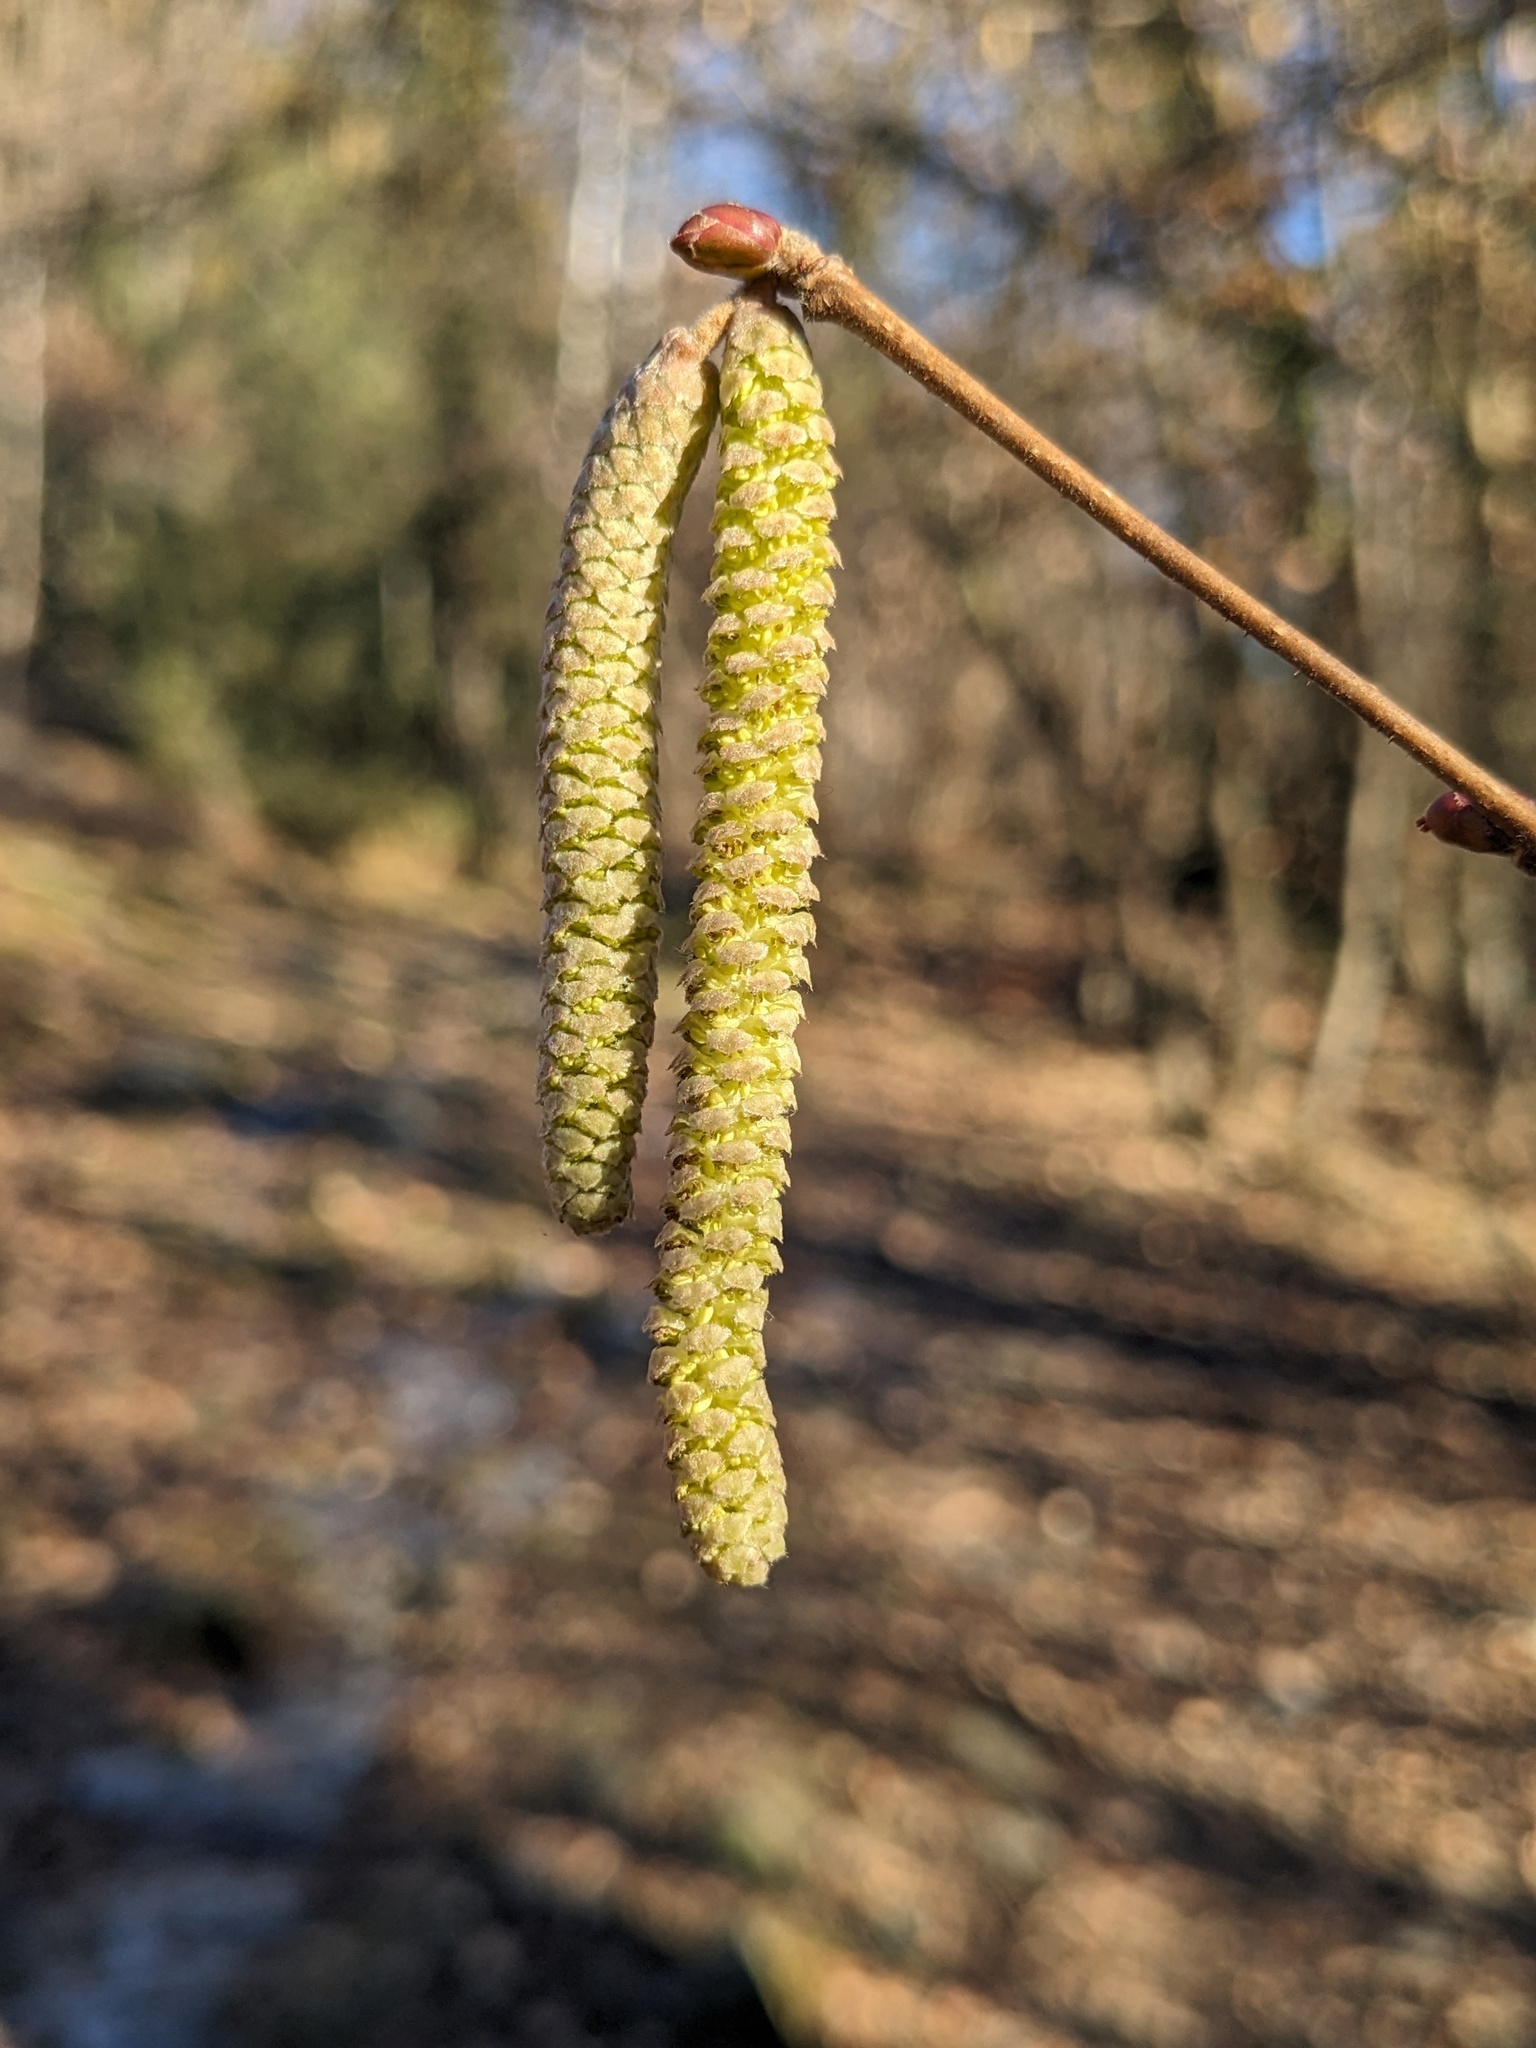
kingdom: Plantae
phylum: Tracheophyta
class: Magnoliopsida
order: Fagales
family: Betulaceae
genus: Corylus
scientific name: Corylus avellana
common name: European hazel
